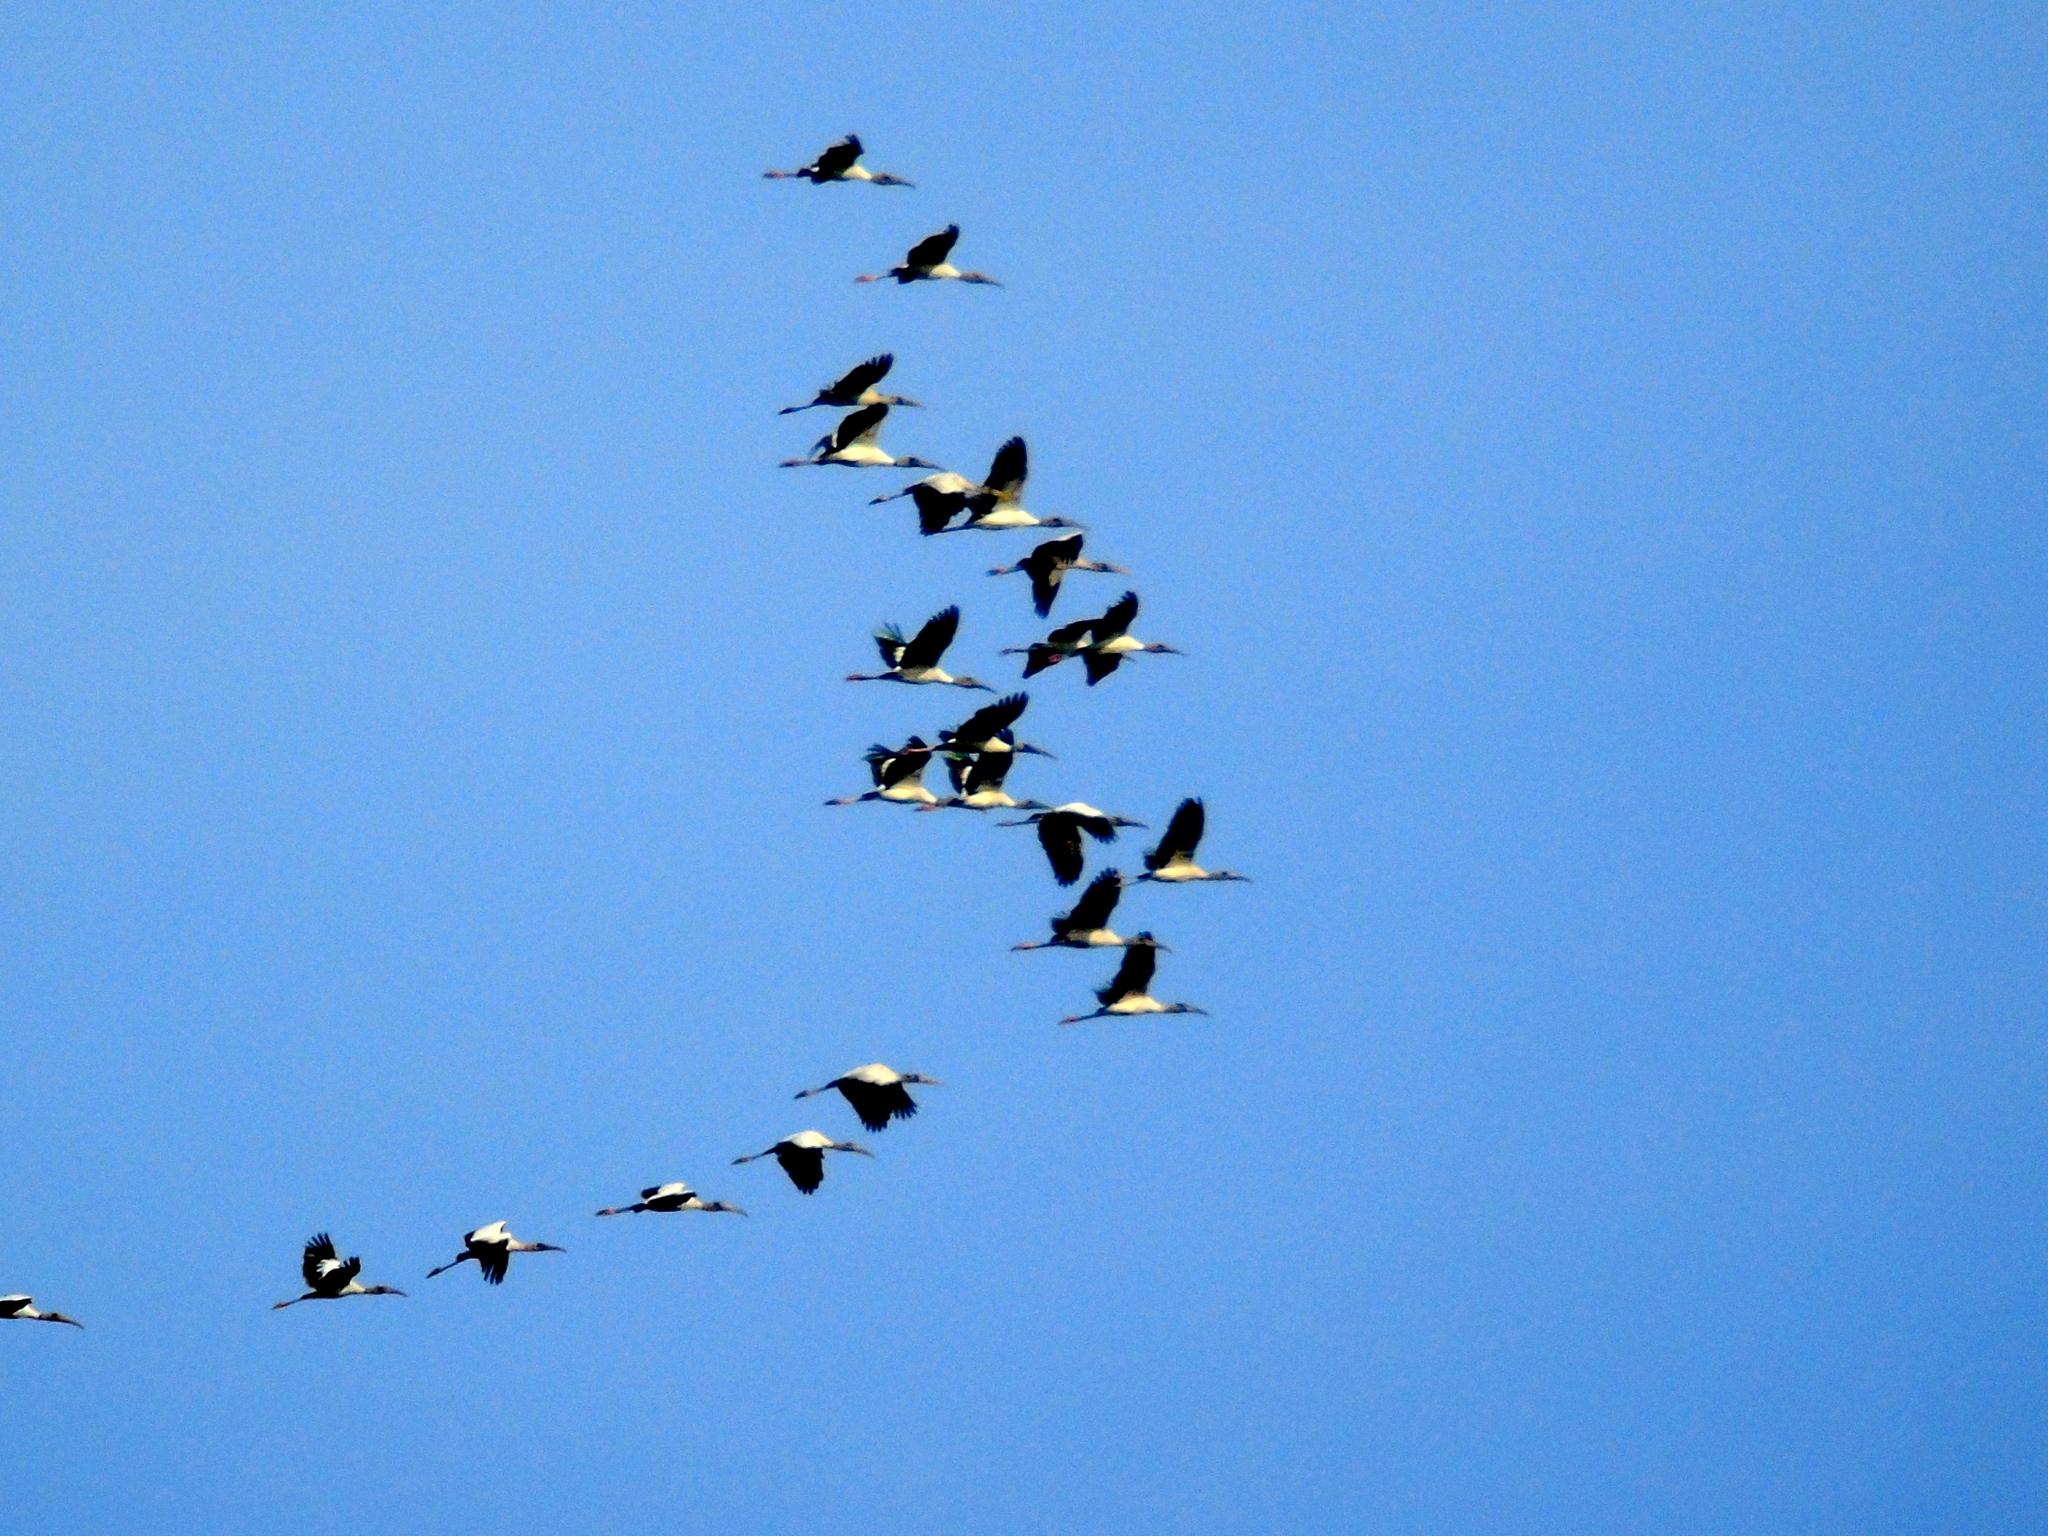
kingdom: Animalia
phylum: Chordata
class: Aves
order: Ciconiiformes
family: Ciconiidae
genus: Mycteria
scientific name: Mycteria americana
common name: Wood stork
